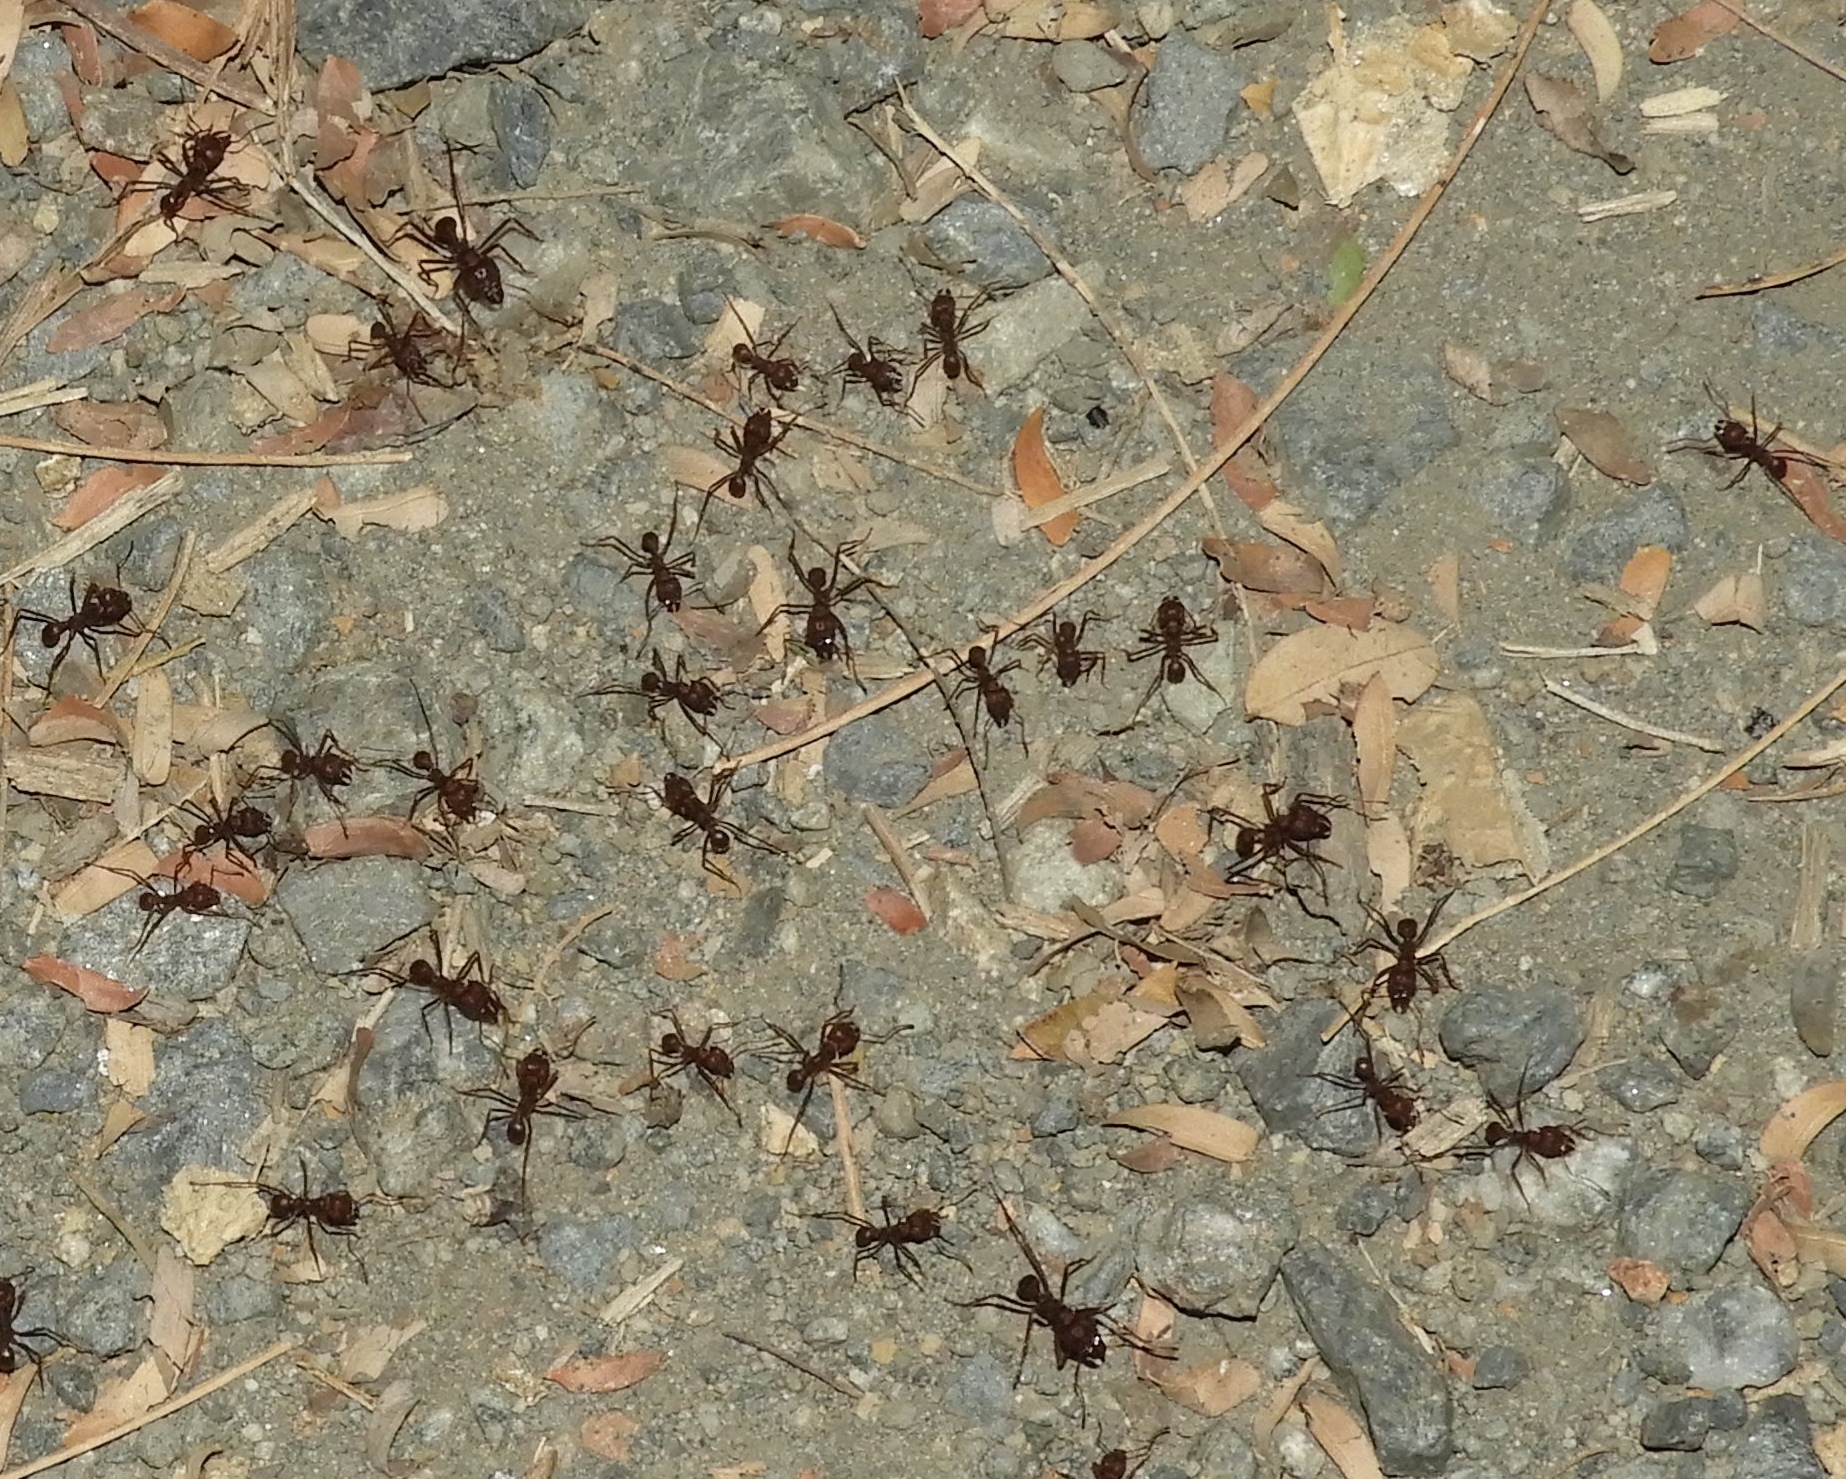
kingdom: Animalia
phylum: Arthropoda
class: Insecta
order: Hymenoptera
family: Formicidae
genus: Atta
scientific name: Atta mexicana
